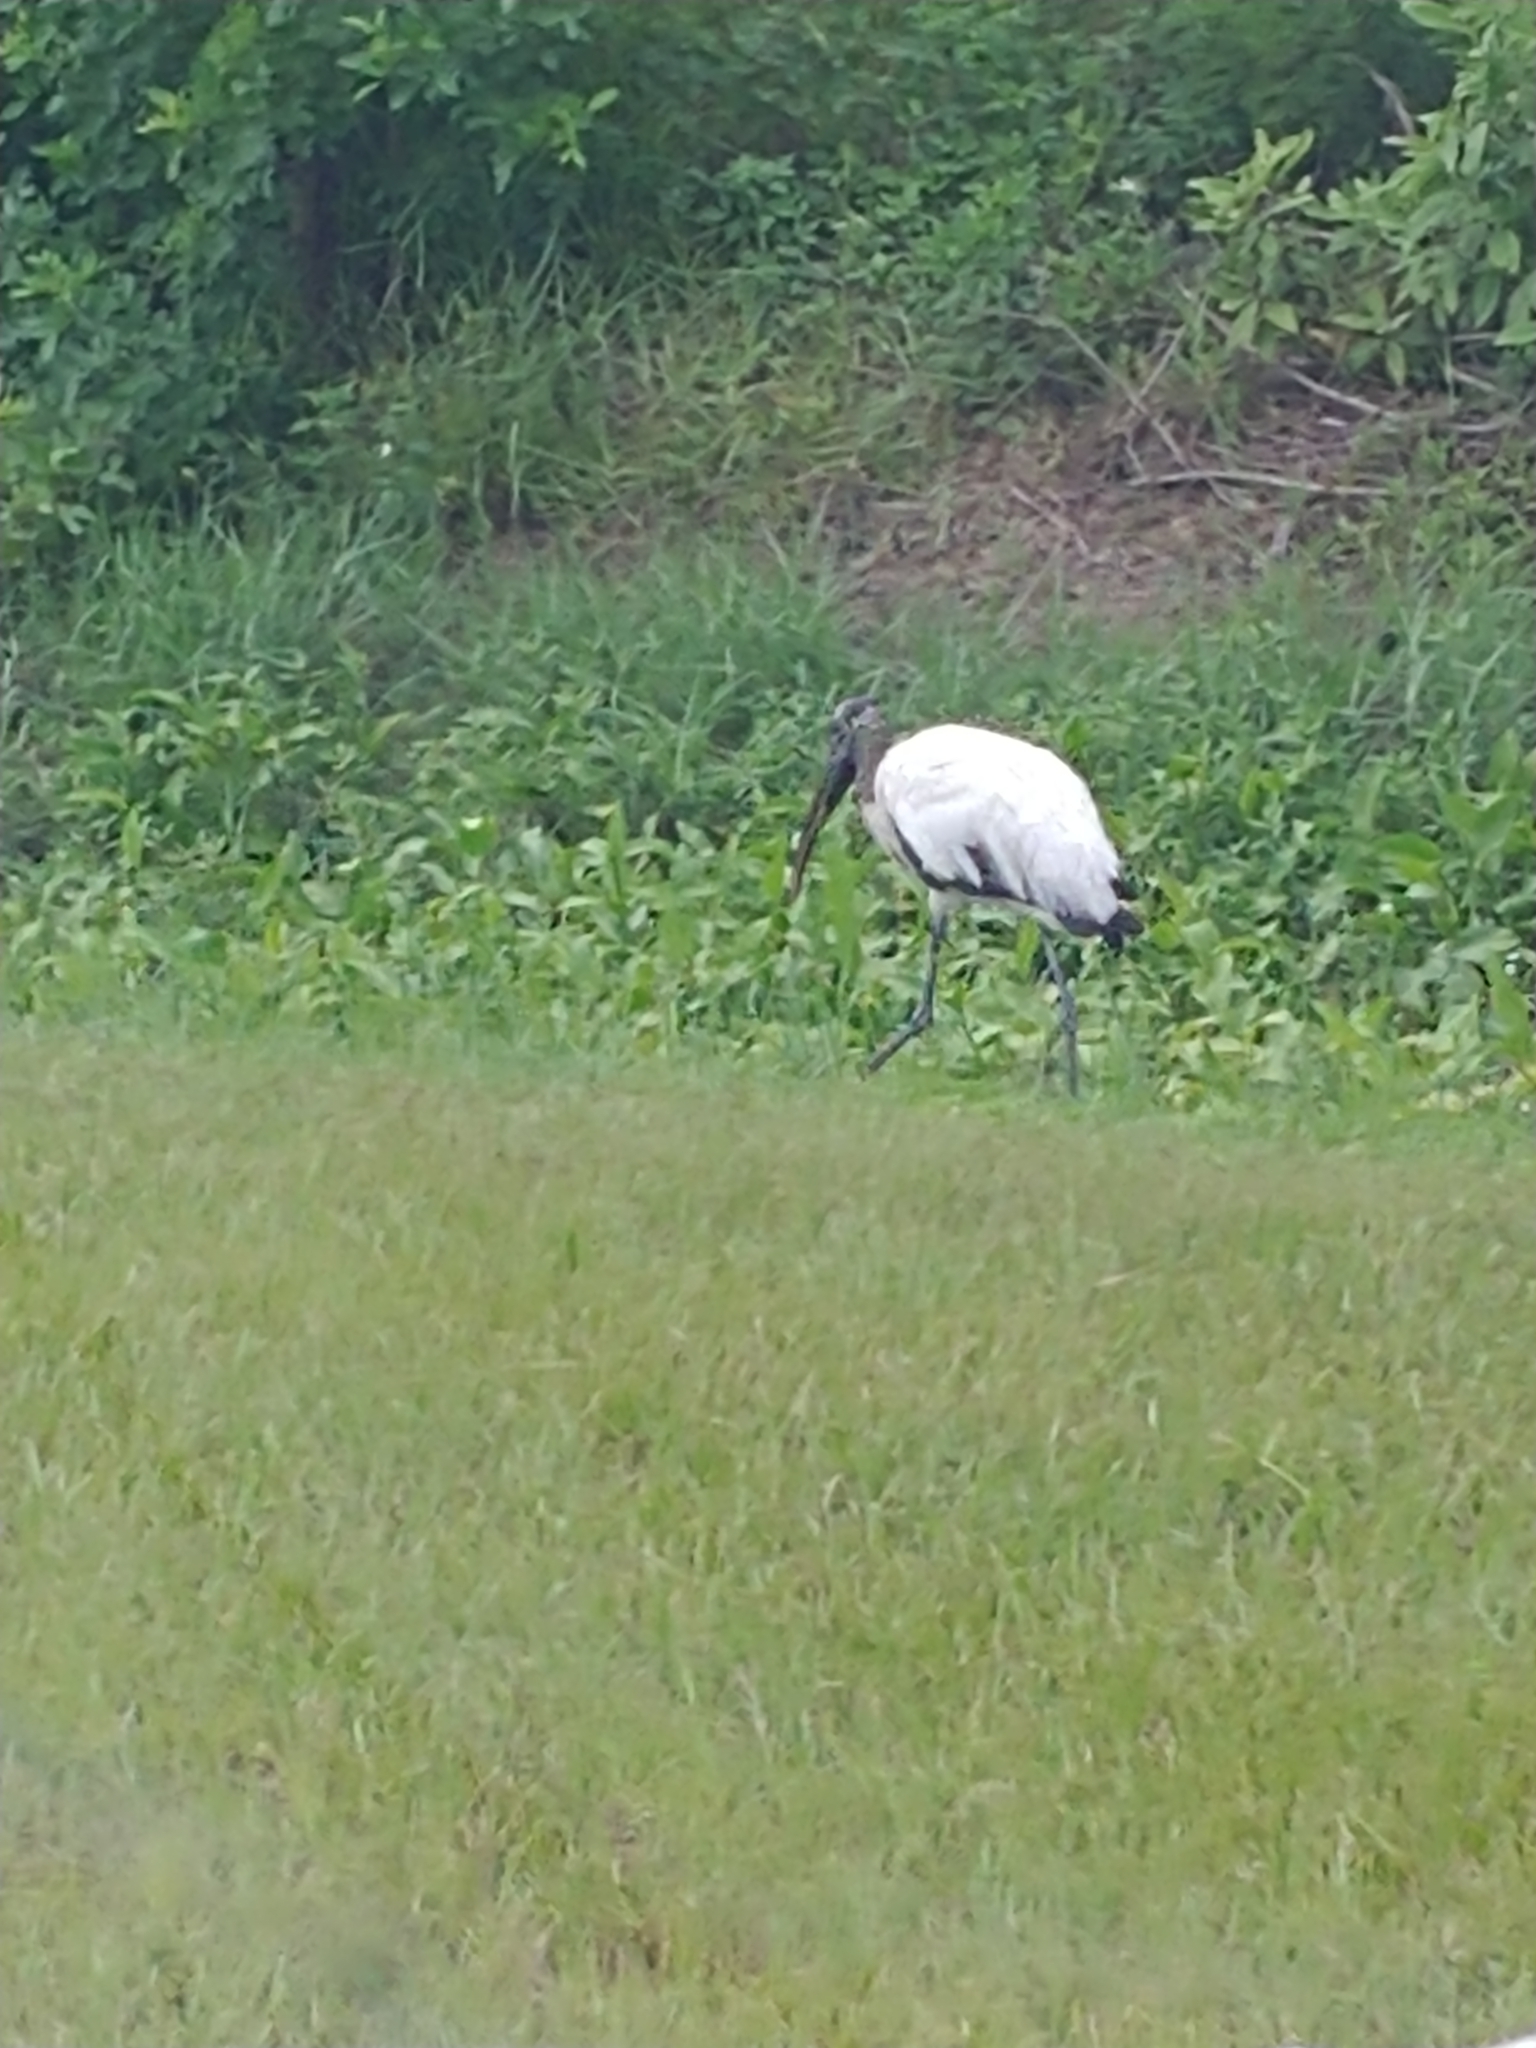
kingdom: Animalia
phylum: Chordata
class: Aves
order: Ciconiiformes
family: Ciconiidae
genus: Mycteria
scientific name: Mycteria americana
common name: Wood stork
